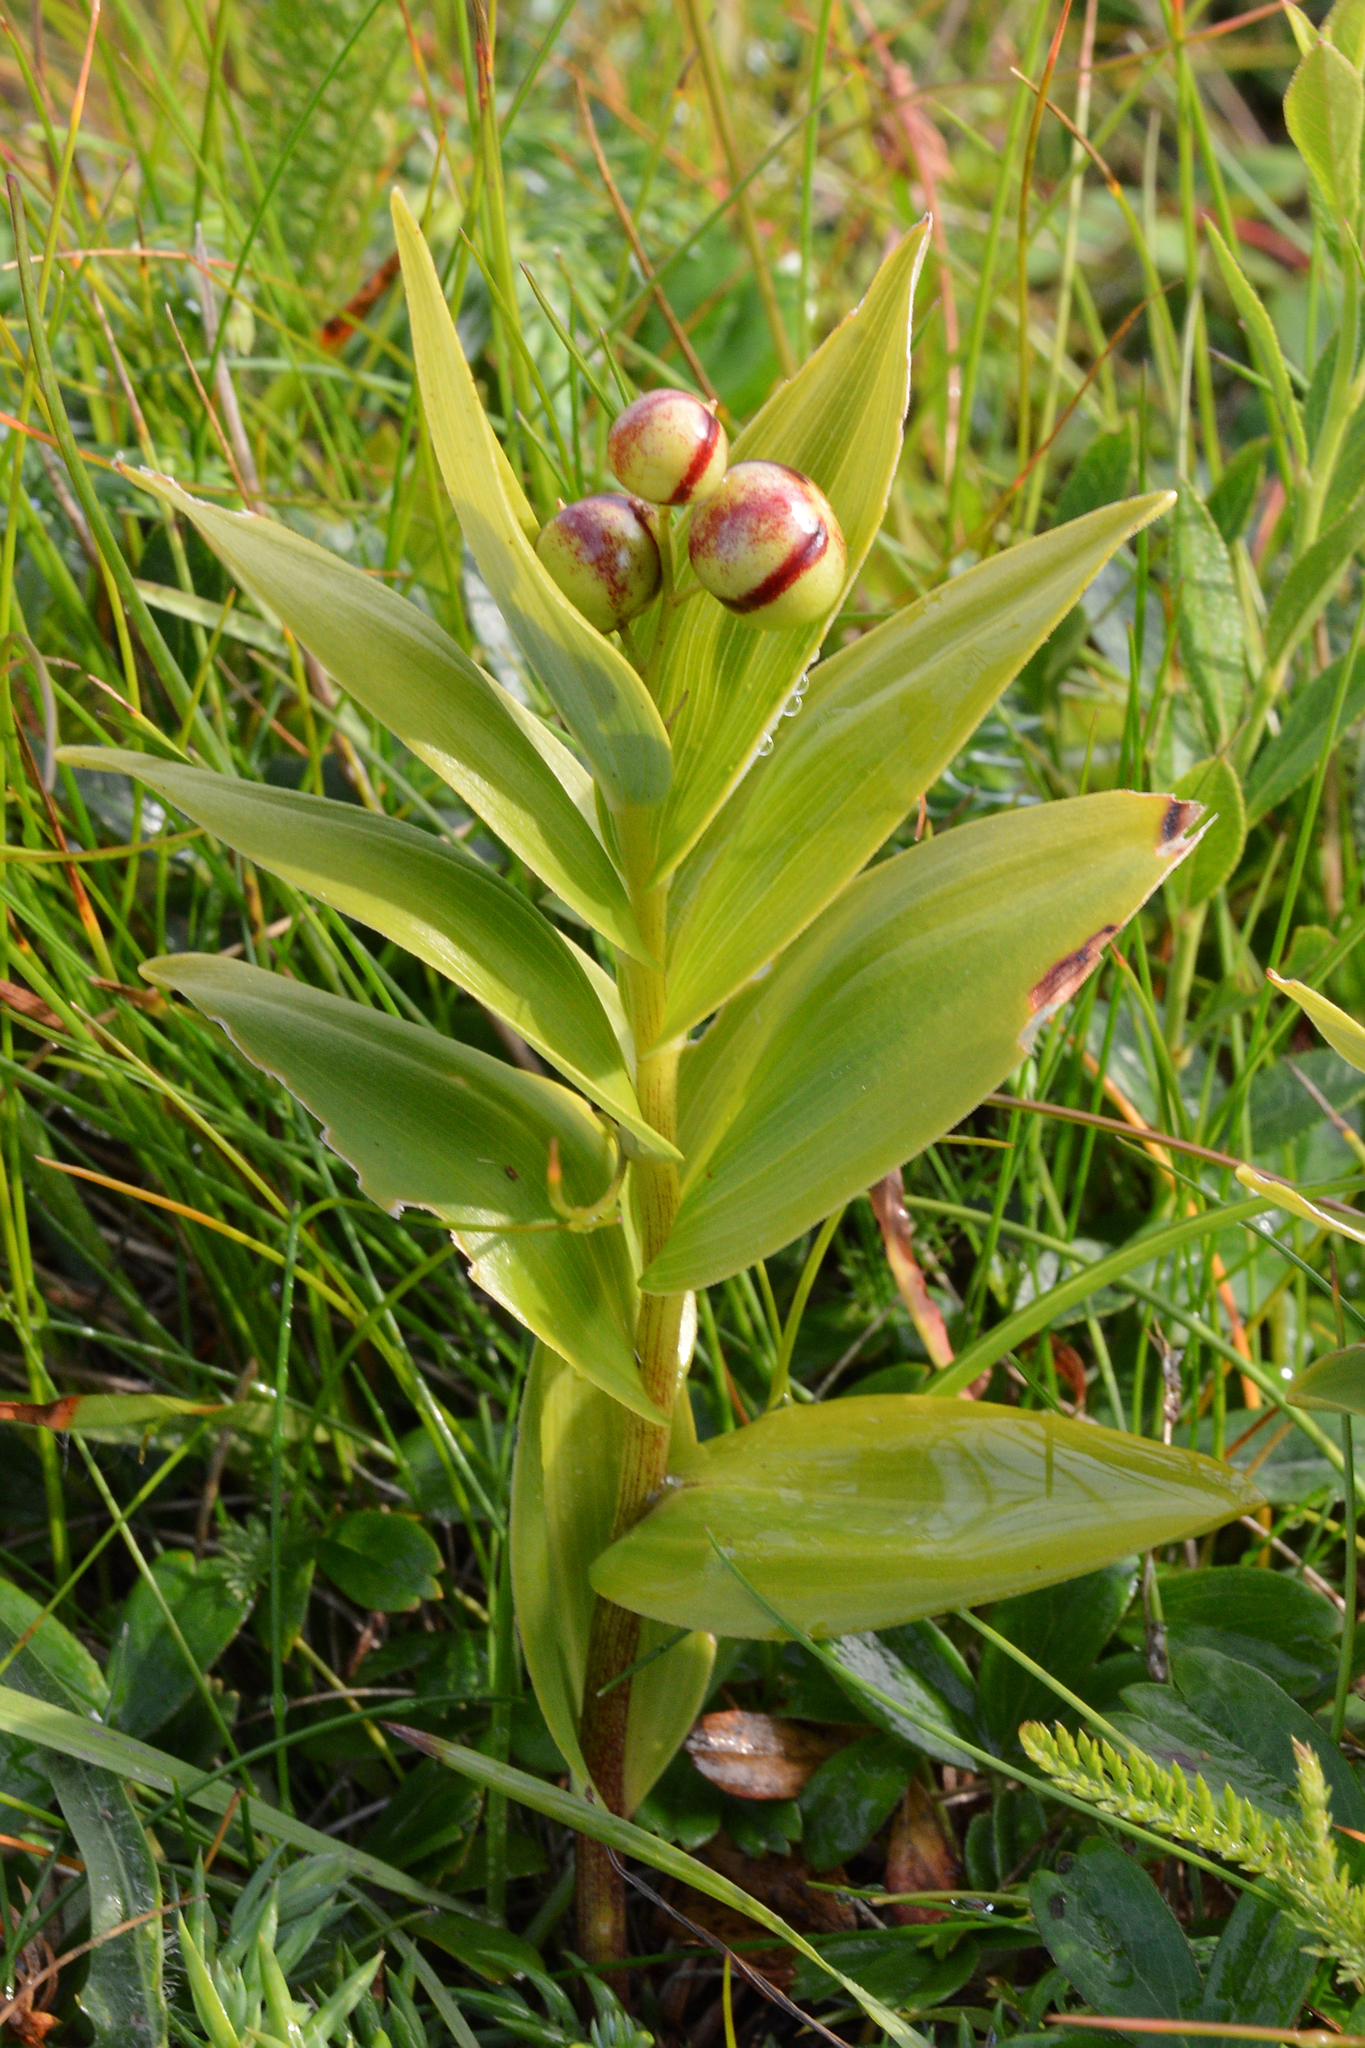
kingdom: Plantae
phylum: Tracheophyta
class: Liliopsida
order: Asparagales
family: Asparagaceae
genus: Maianthemum
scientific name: Maianthemum stellatum
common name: Little false solomon's seal
